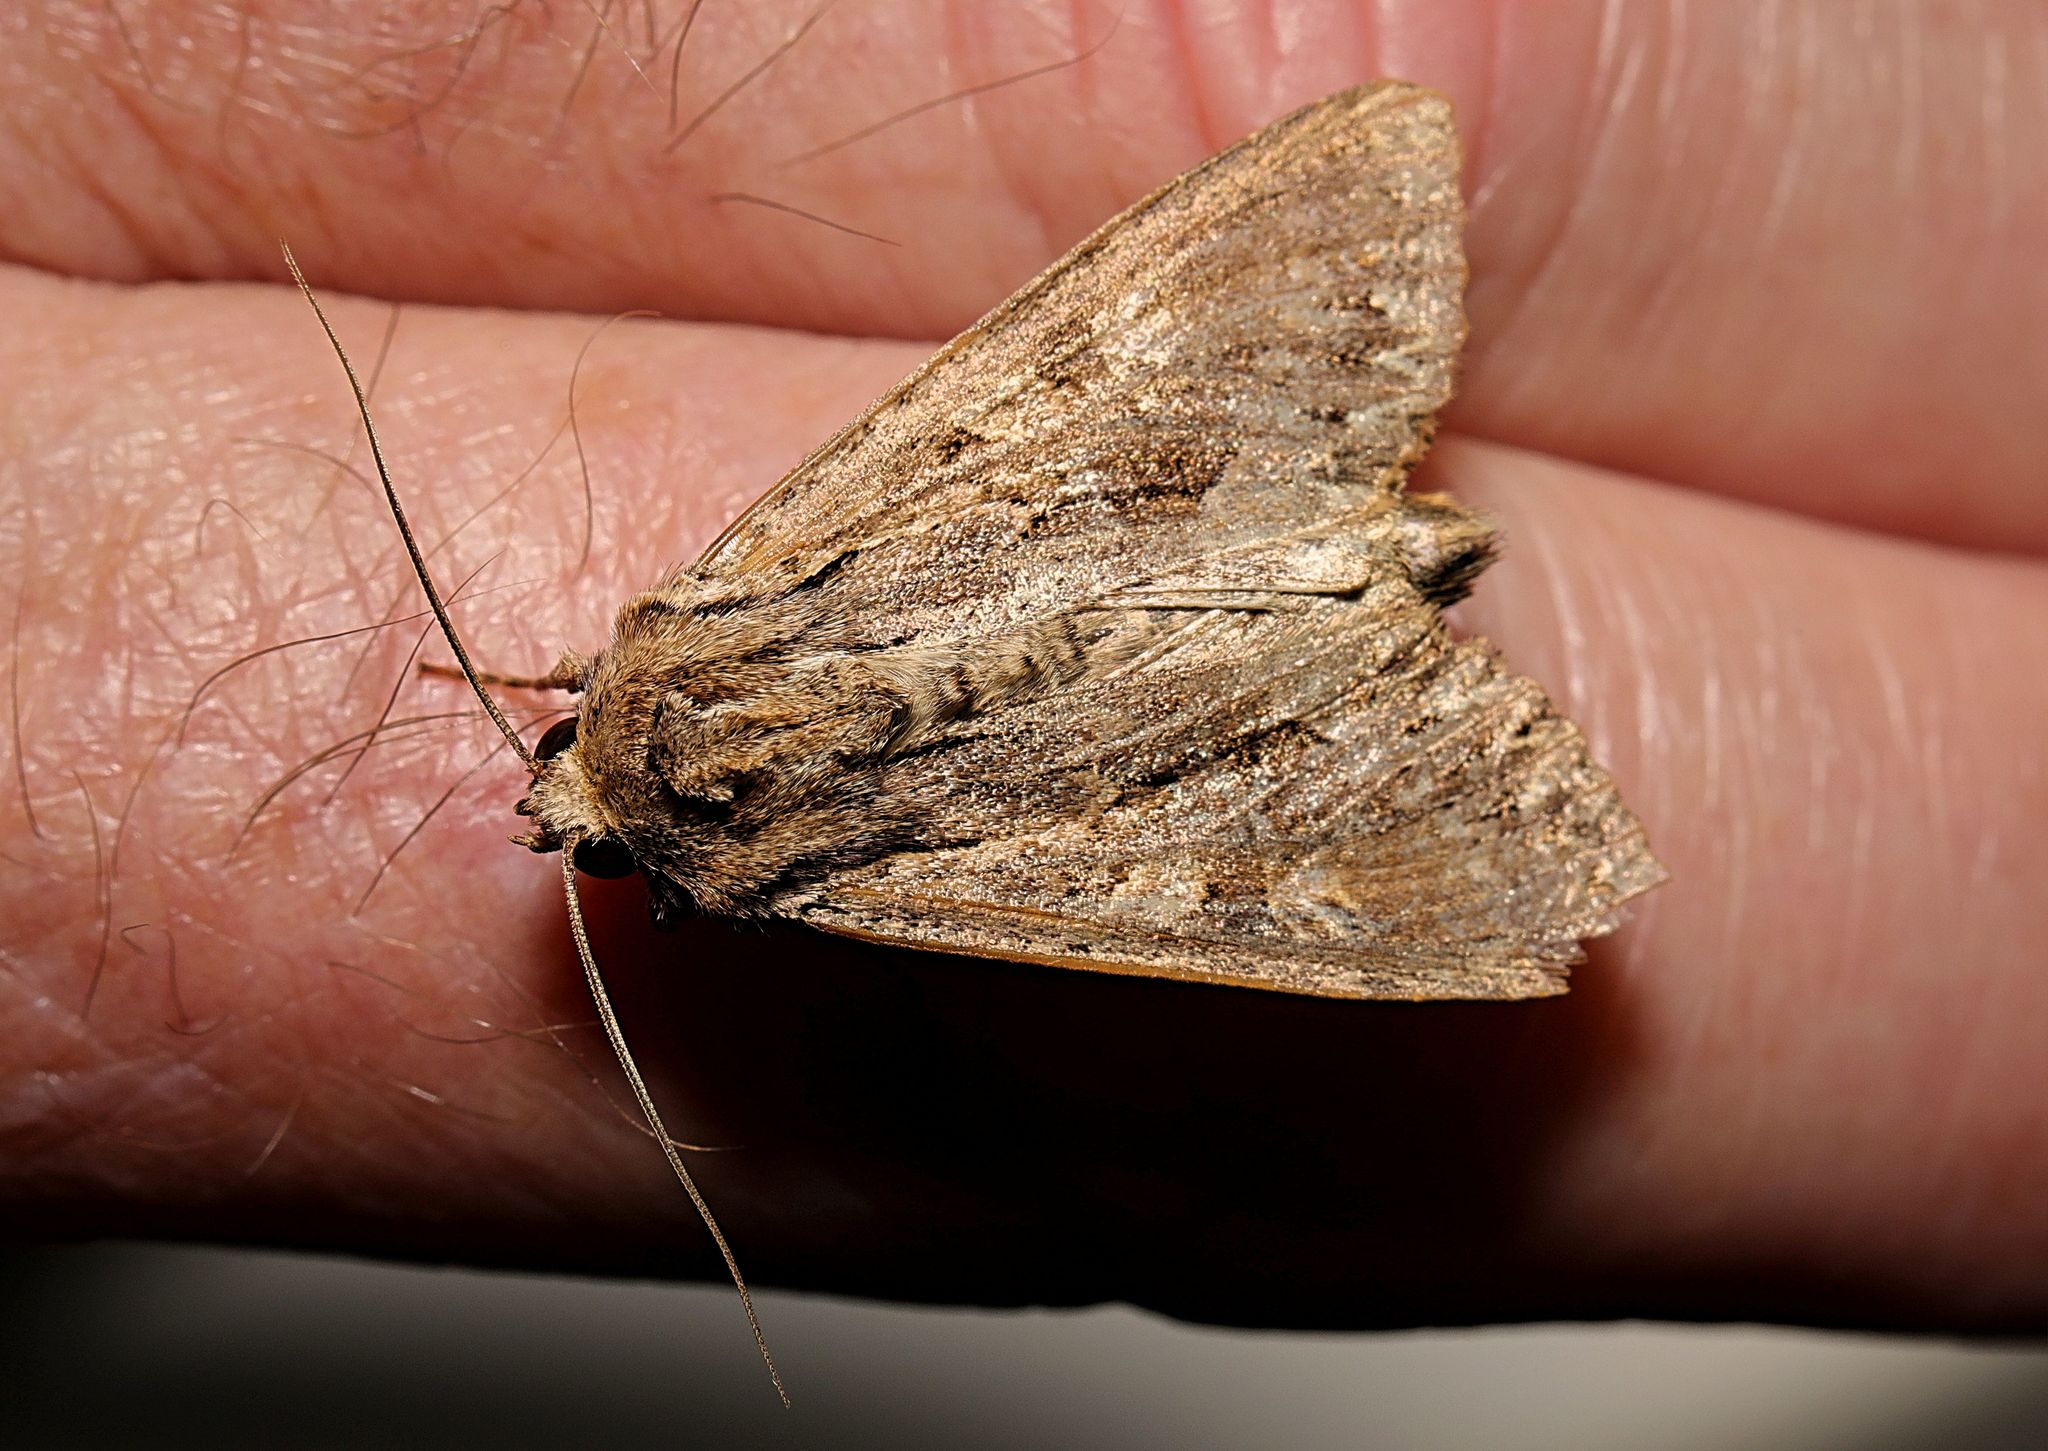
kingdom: Animalia
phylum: Arthropoda
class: Insecta
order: Lepidoptera
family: Noctuidae
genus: Apamea
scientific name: Apamea monoglypha
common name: Dark arches
